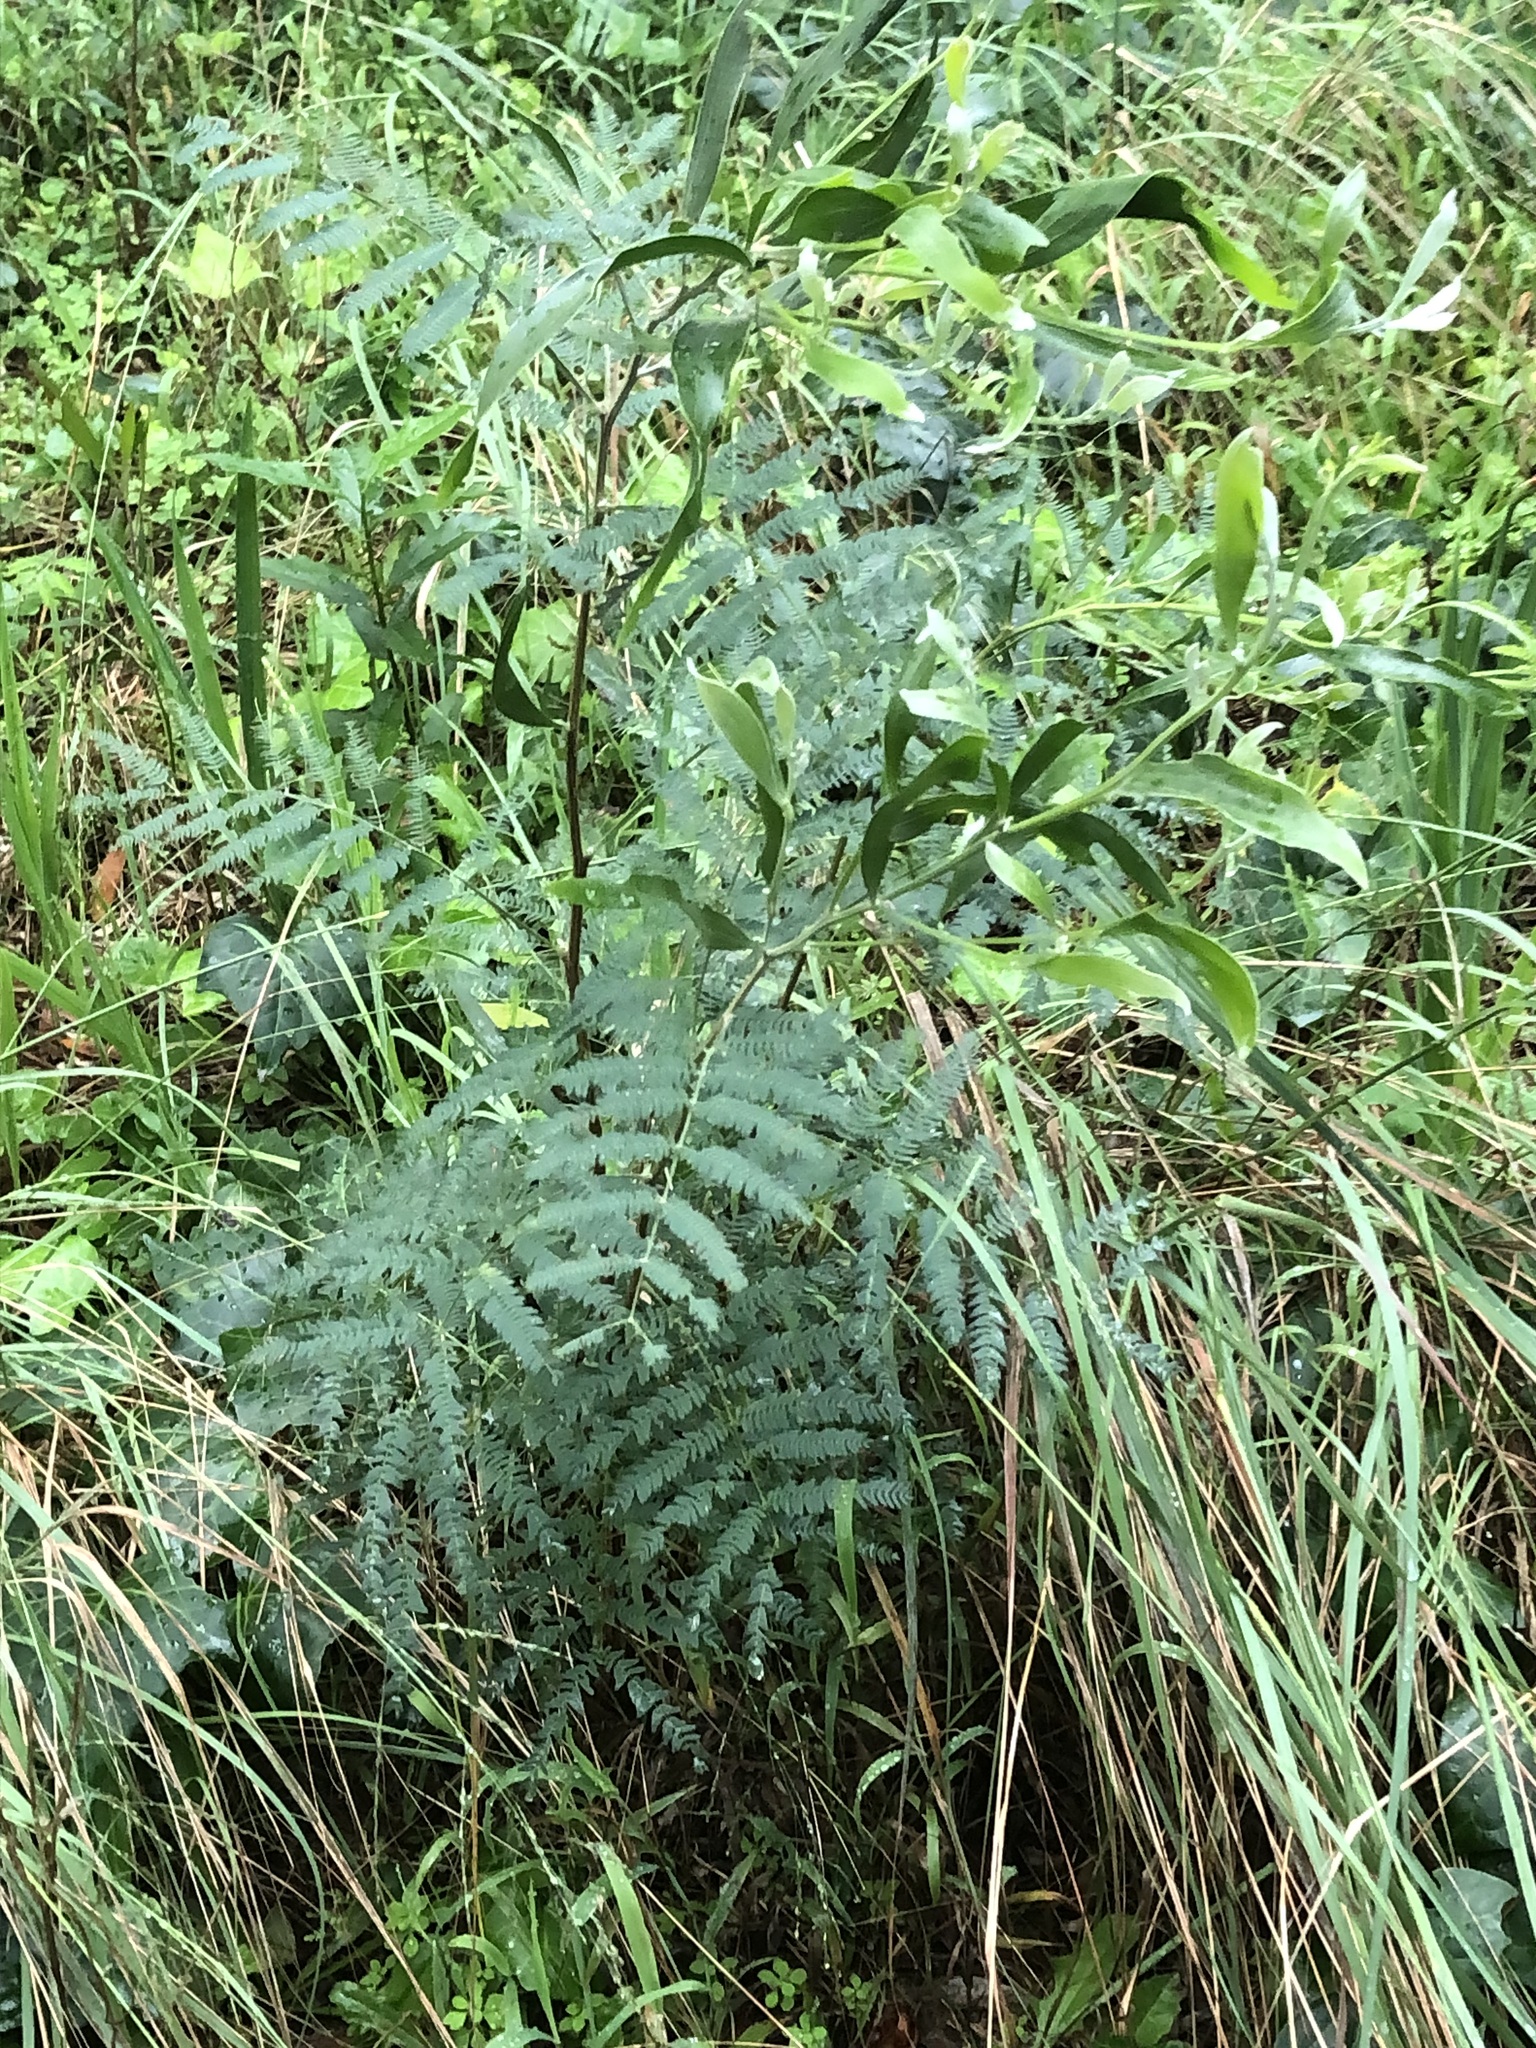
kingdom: Plantae
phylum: Tracheophyta
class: Magnoliopsida
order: Fabales
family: Fabaceae
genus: Acacia
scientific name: Acacia melanoxylon
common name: Blackwood
